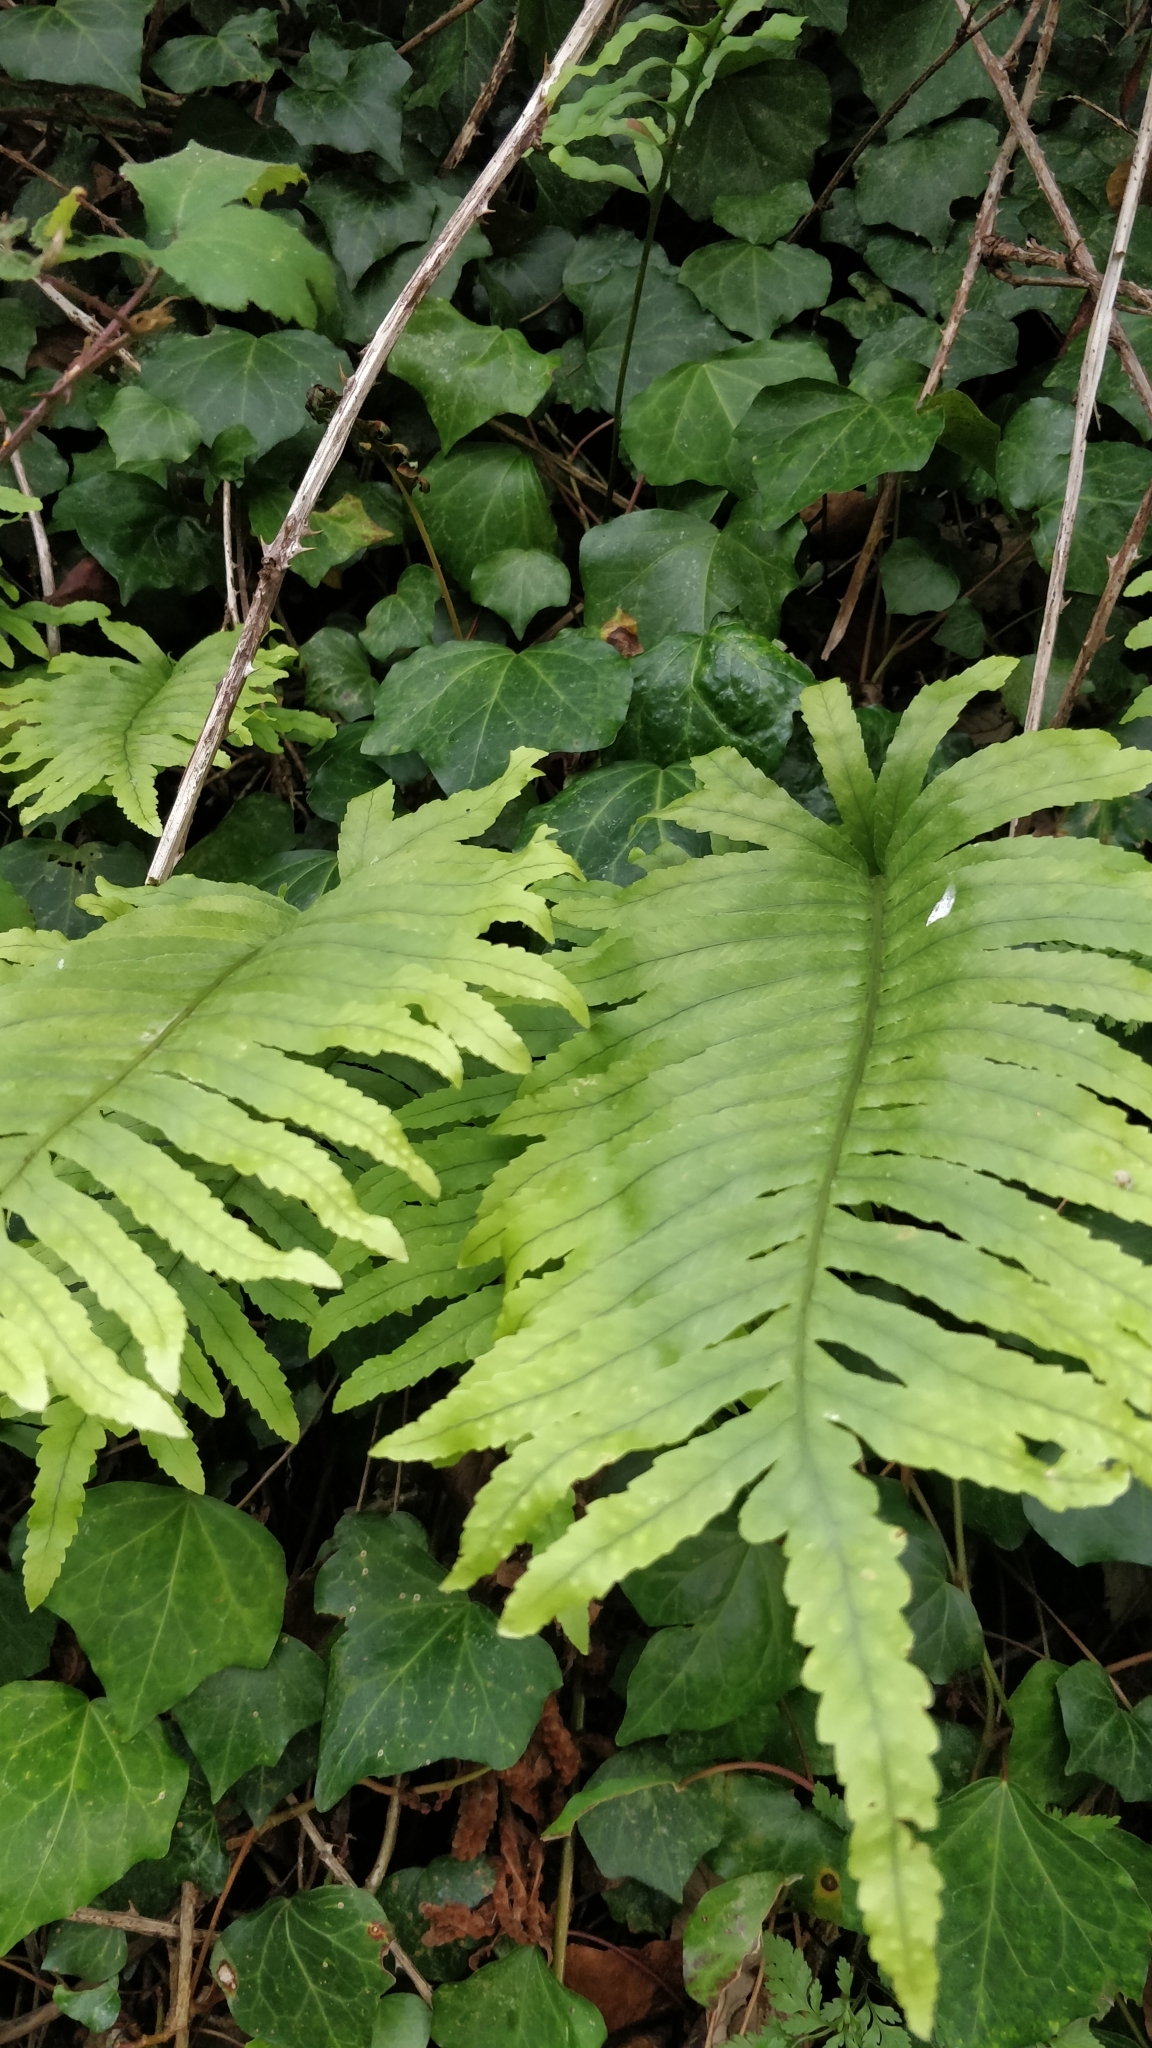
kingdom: Plantae
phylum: Tracheophyta
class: Polypodiopsida
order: Polypodiales
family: Polypodiaceae
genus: Polypodium
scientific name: Polypodium macaronesicum
